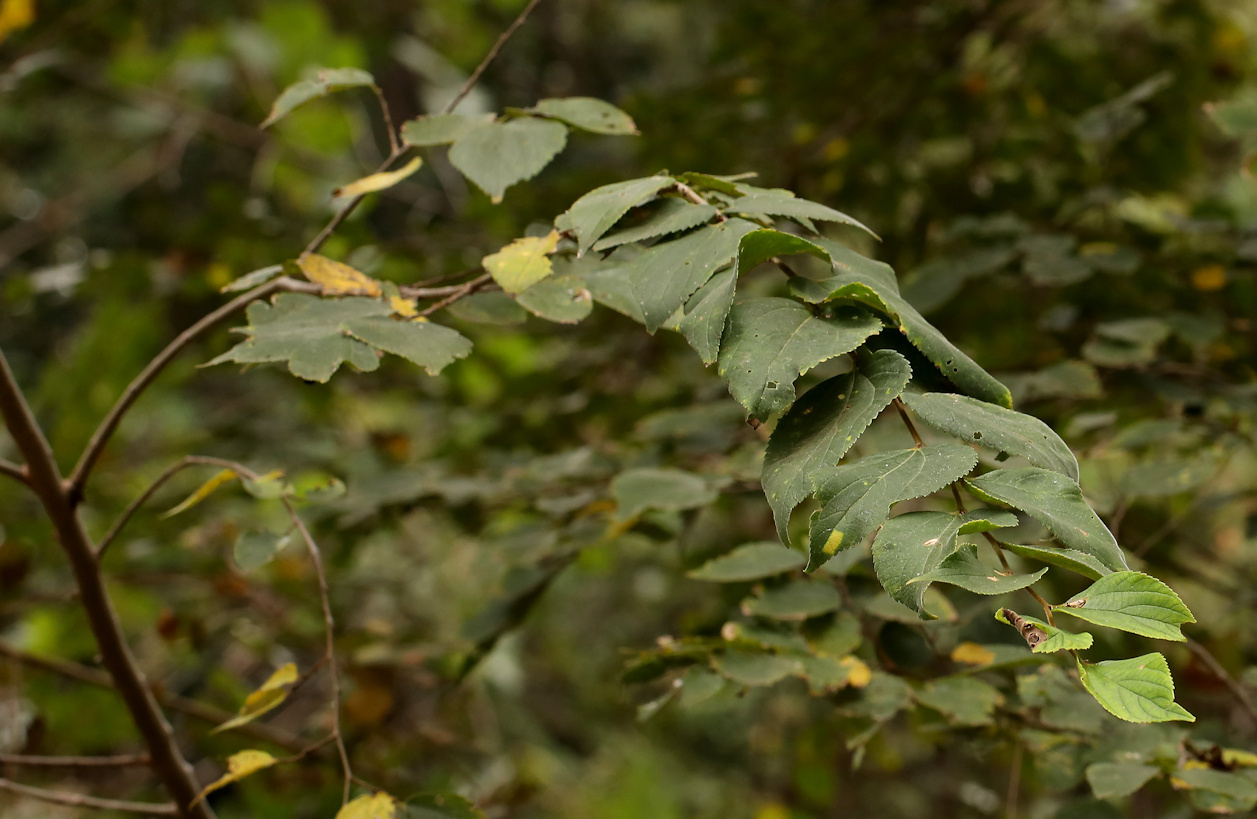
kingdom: Plantae
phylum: Tracheophyta
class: Magnoliopsida
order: Rosales
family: Cannabaceae
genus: Celtis
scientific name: Celtis africana
